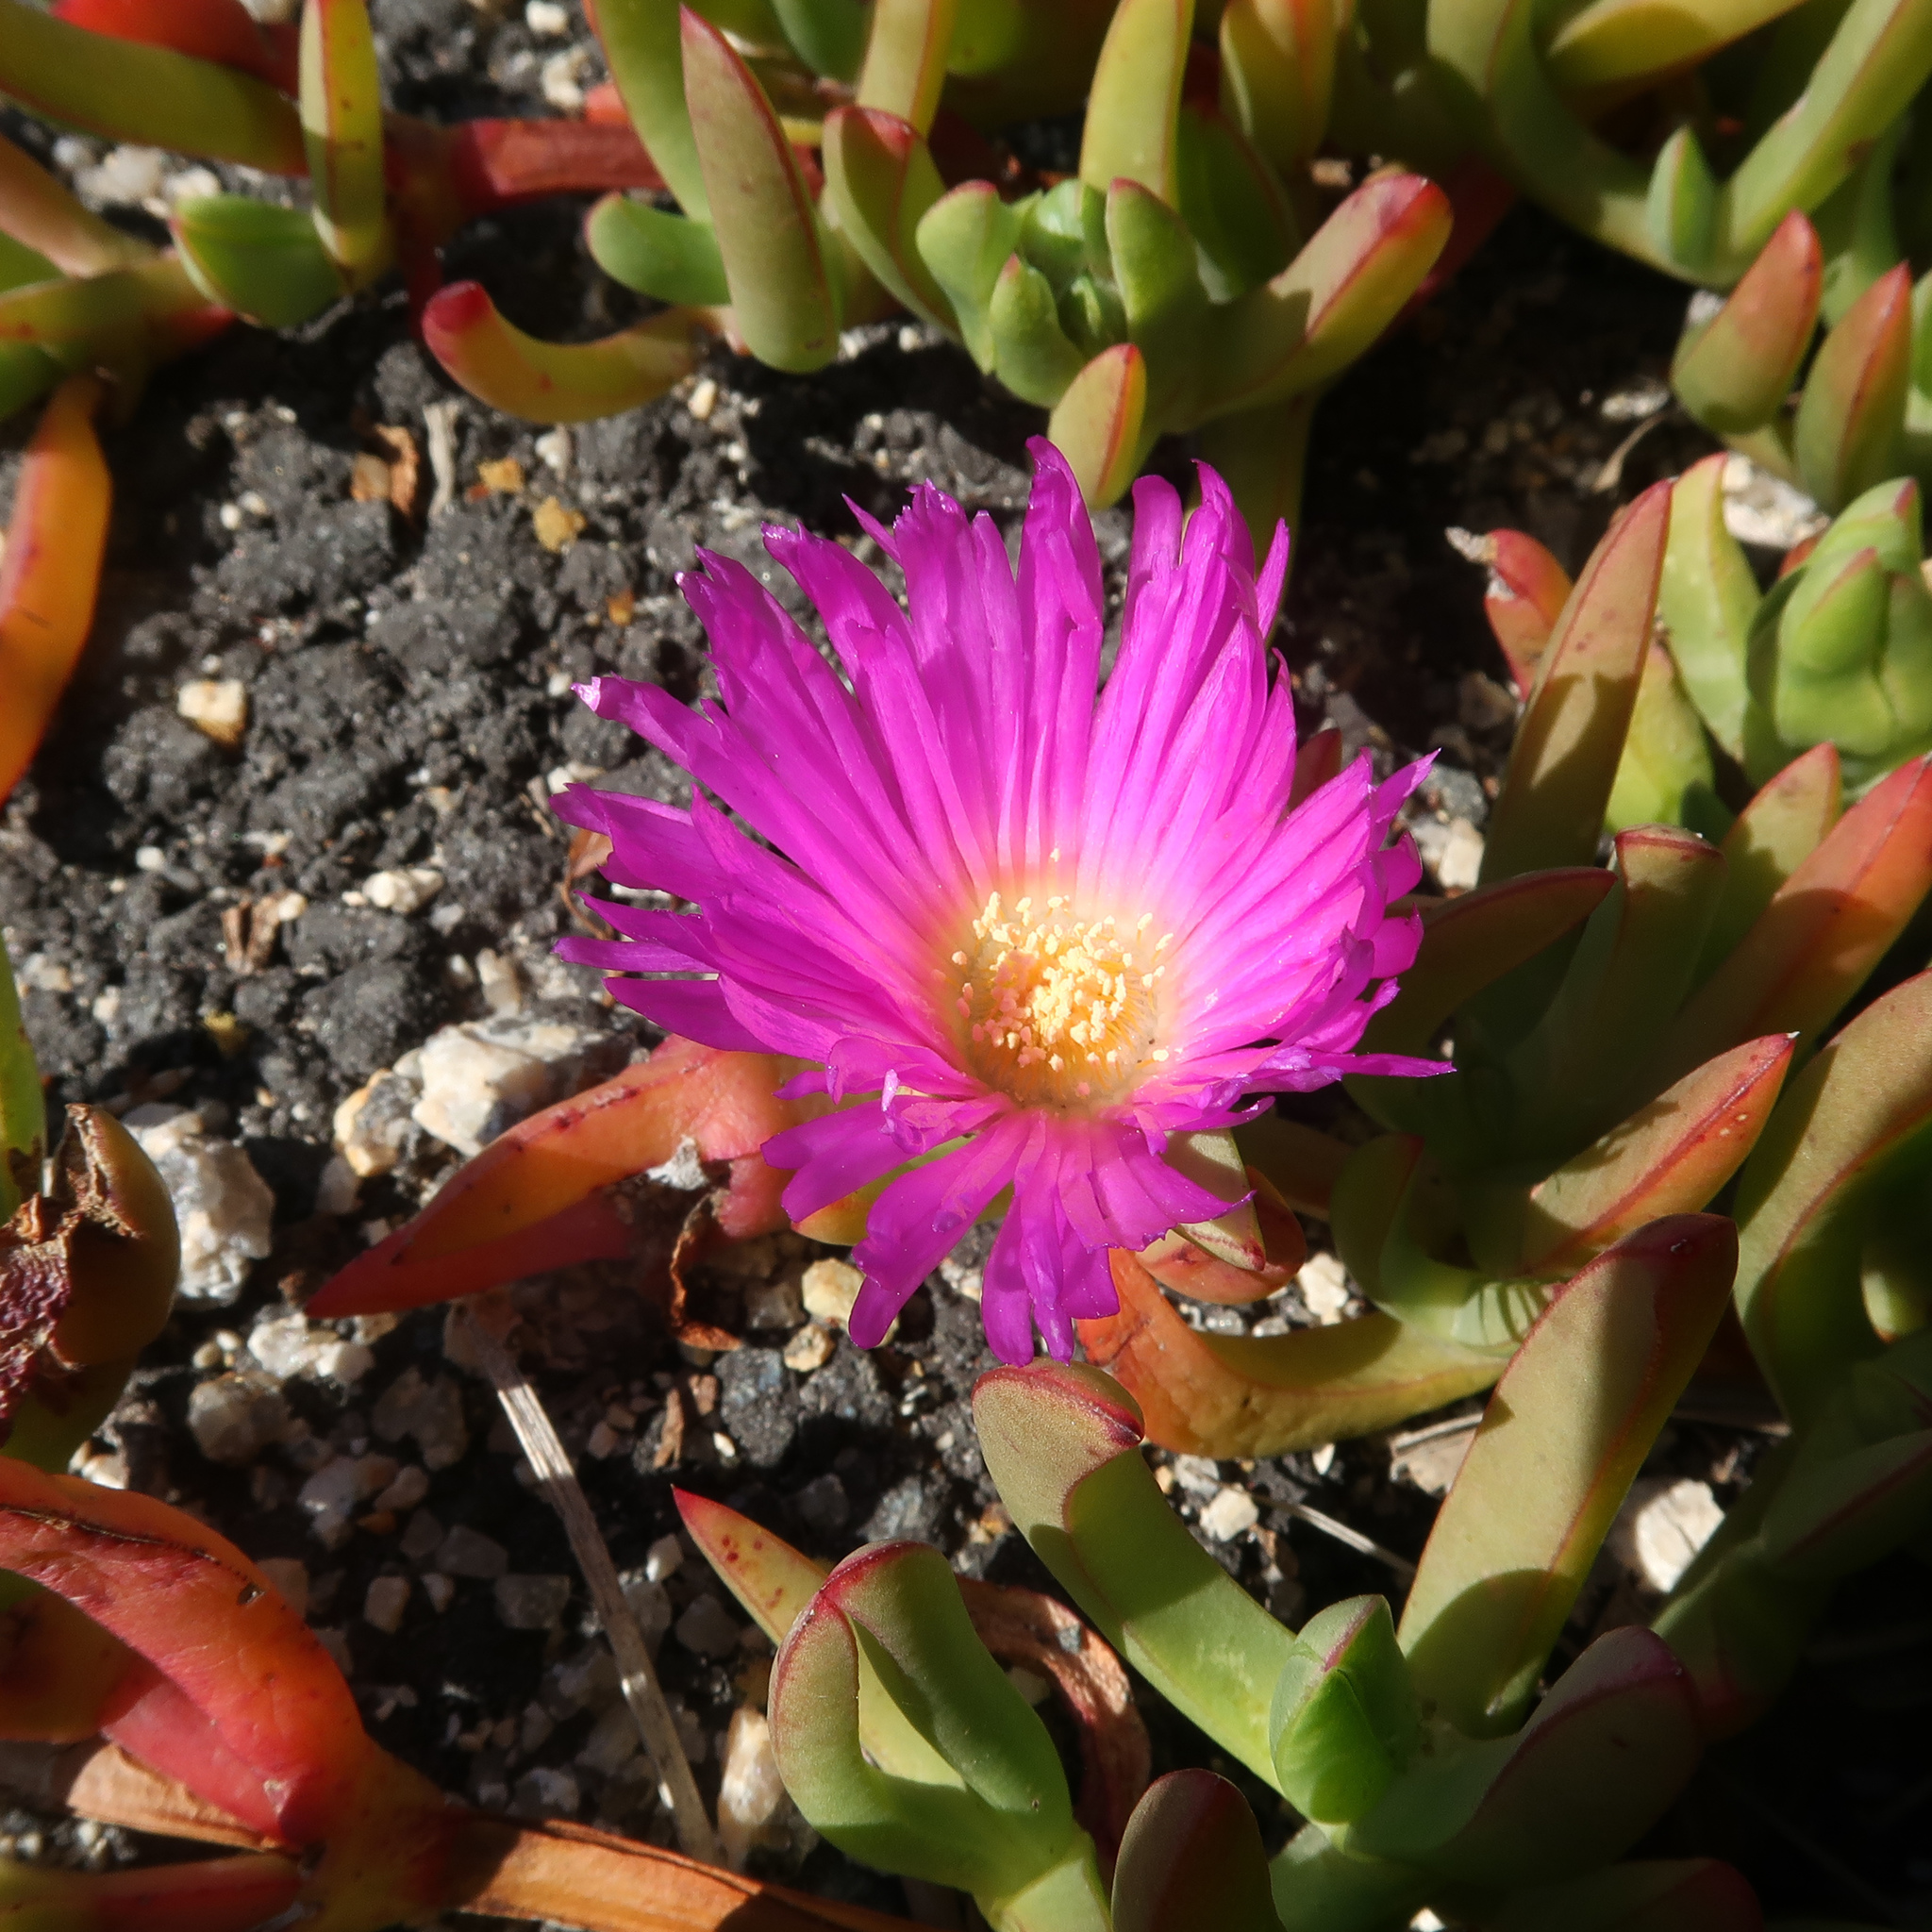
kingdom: Plantae
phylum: Tracheophyta
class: Magnoliopsida
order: Caryophyllales
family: Aizoaceae
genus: Carpobrotus
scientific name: Carpobrotus rossii
